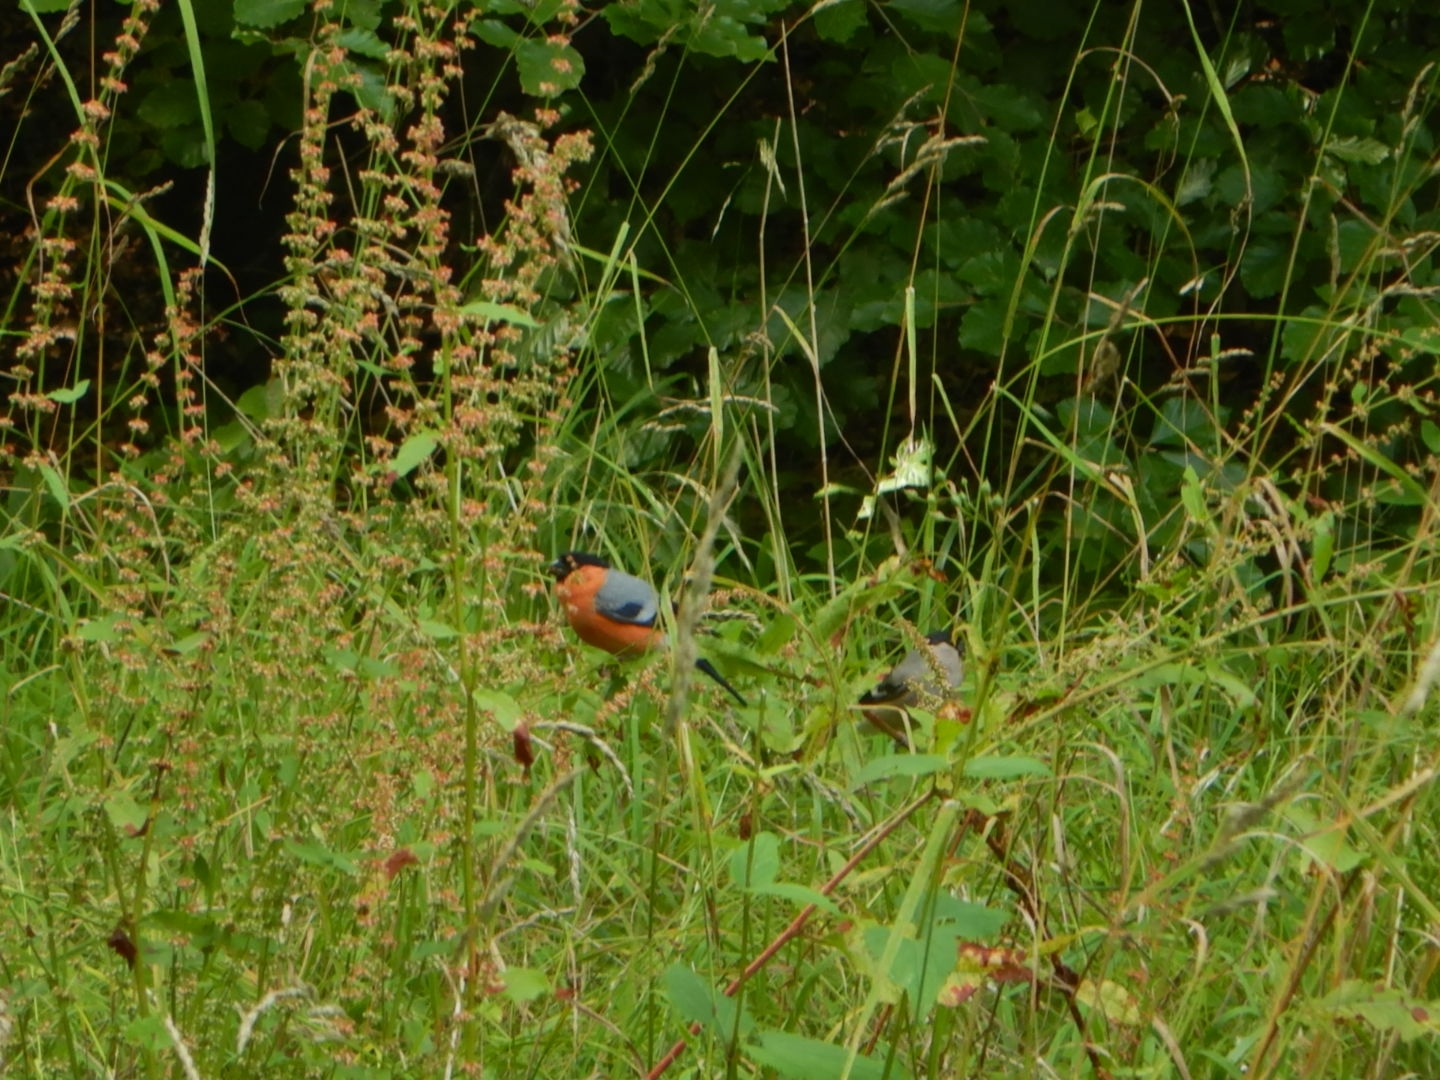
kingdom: Animalia
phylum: Chordata
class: Aves
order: Passeriformes
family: Fringillidae
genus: Pyrrhula
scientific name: Pyrrhula pyrrhula
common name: Eurasian bullfinch
